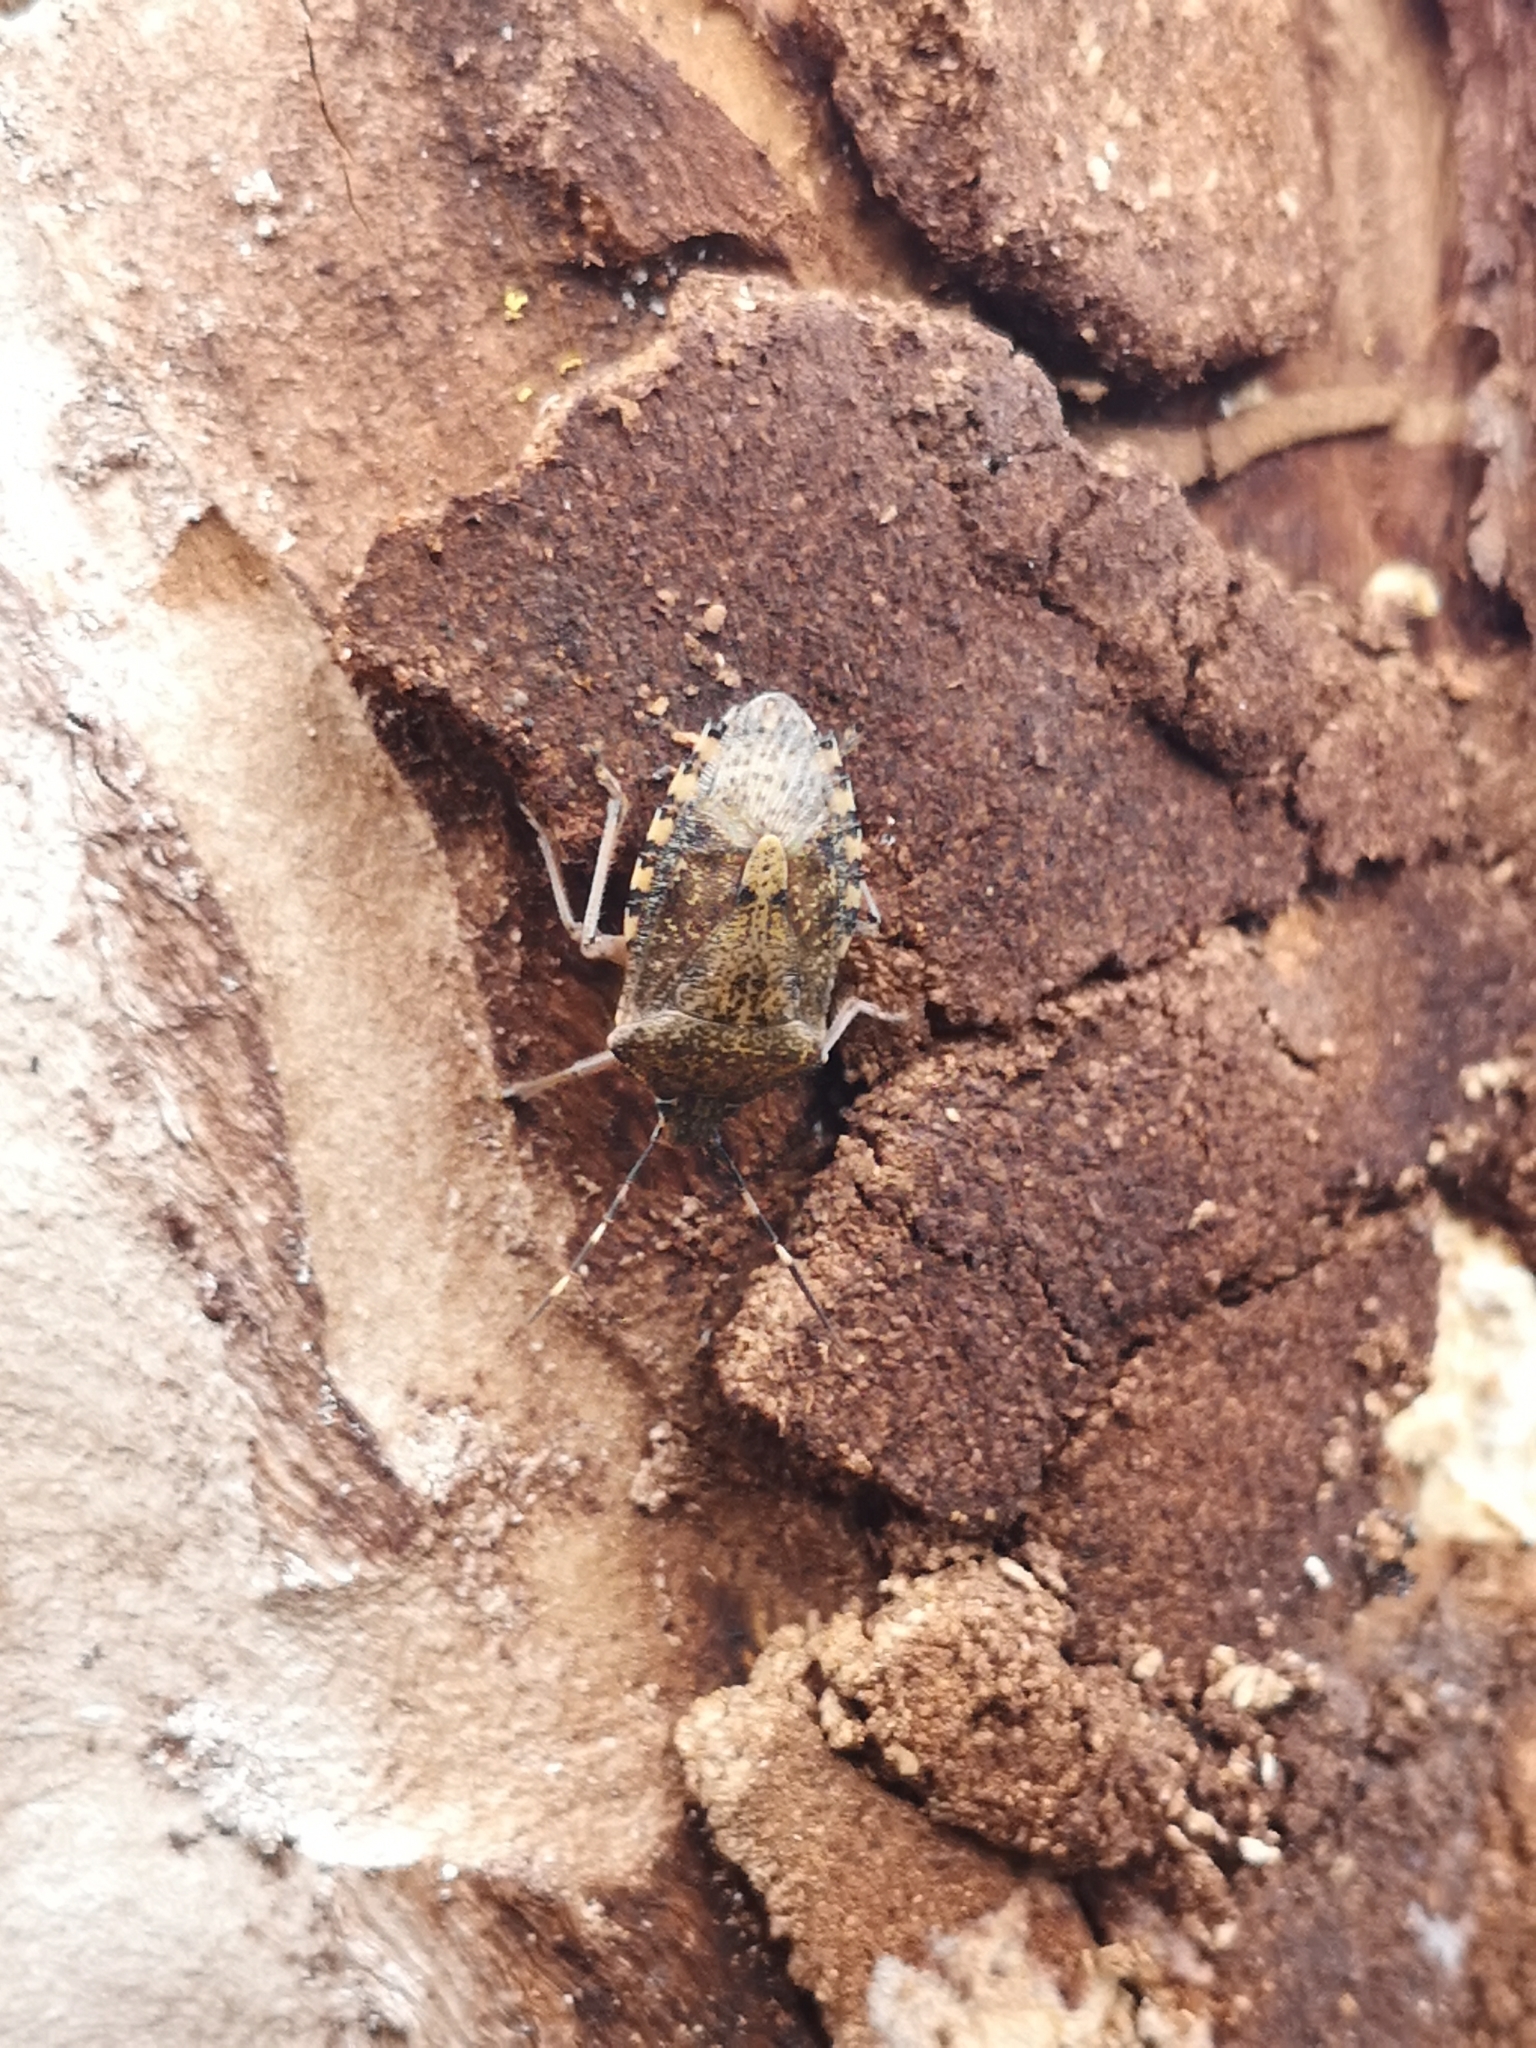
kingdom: Animalia
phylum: Arthropoda
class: Insecta
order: Hemiptera
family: Pentatomidae
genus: Rhaphigaster
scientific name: Rhaphigaster nebulosa
